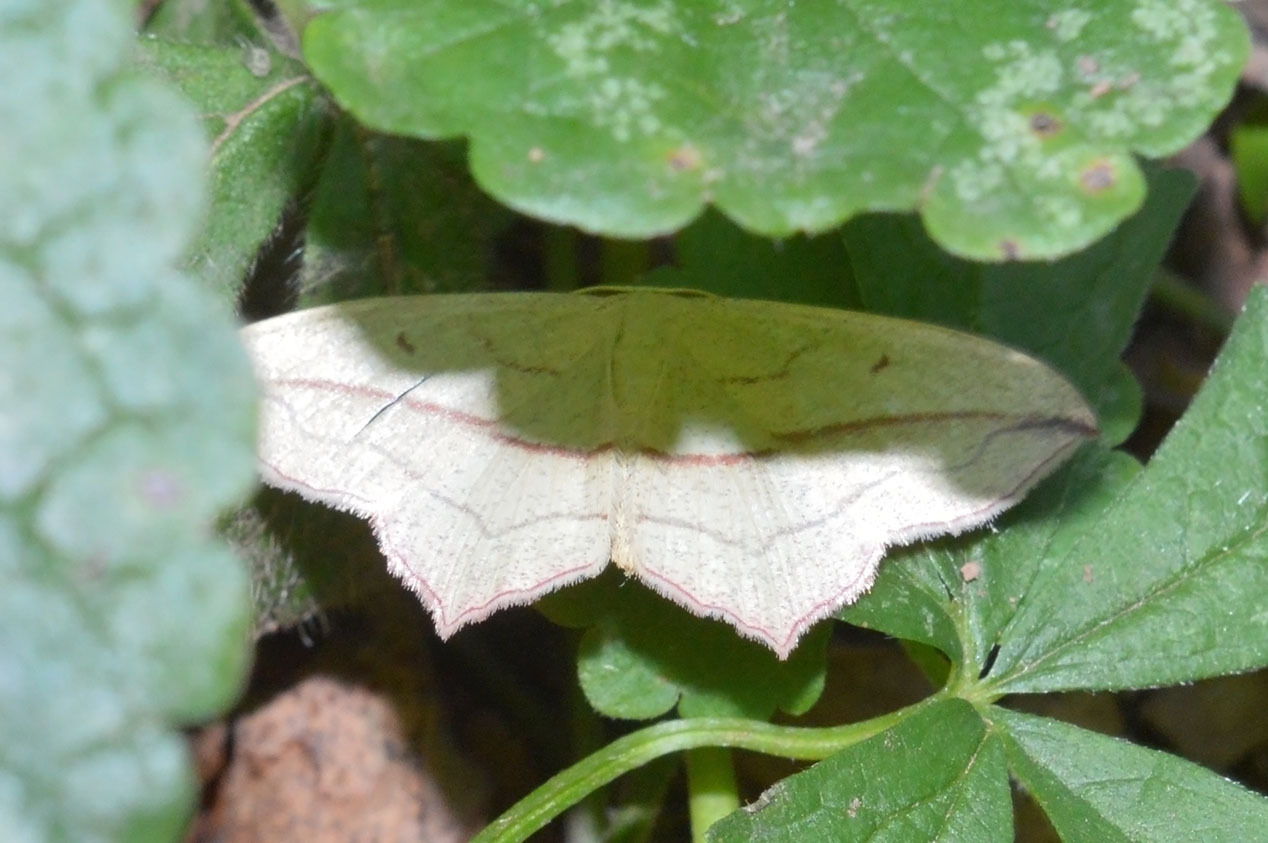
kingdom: Animalia
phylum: Arthropoda
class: Insecta
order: Lepidoptera
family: Geometridae
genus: Timandra
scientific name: Timandra comae
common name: Blood-vein
